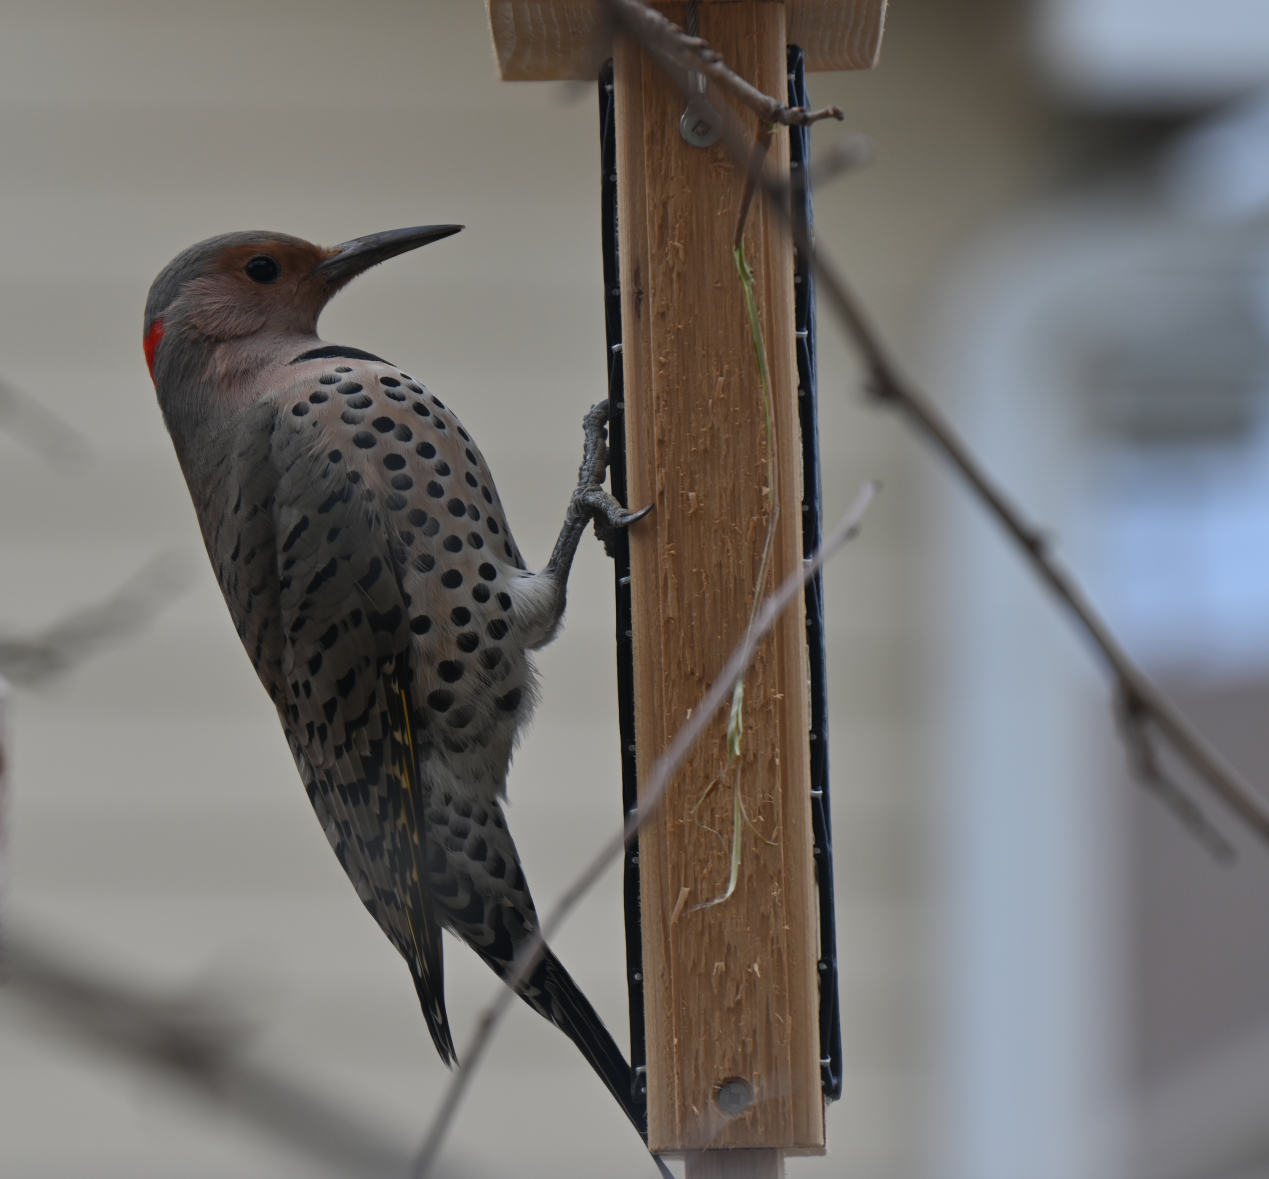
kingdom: Animalia
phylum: Chordata
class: Aves
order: Piciformes
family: Picidae
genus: Colaptes
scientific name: Colaptes auratus
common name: Northern flicker
